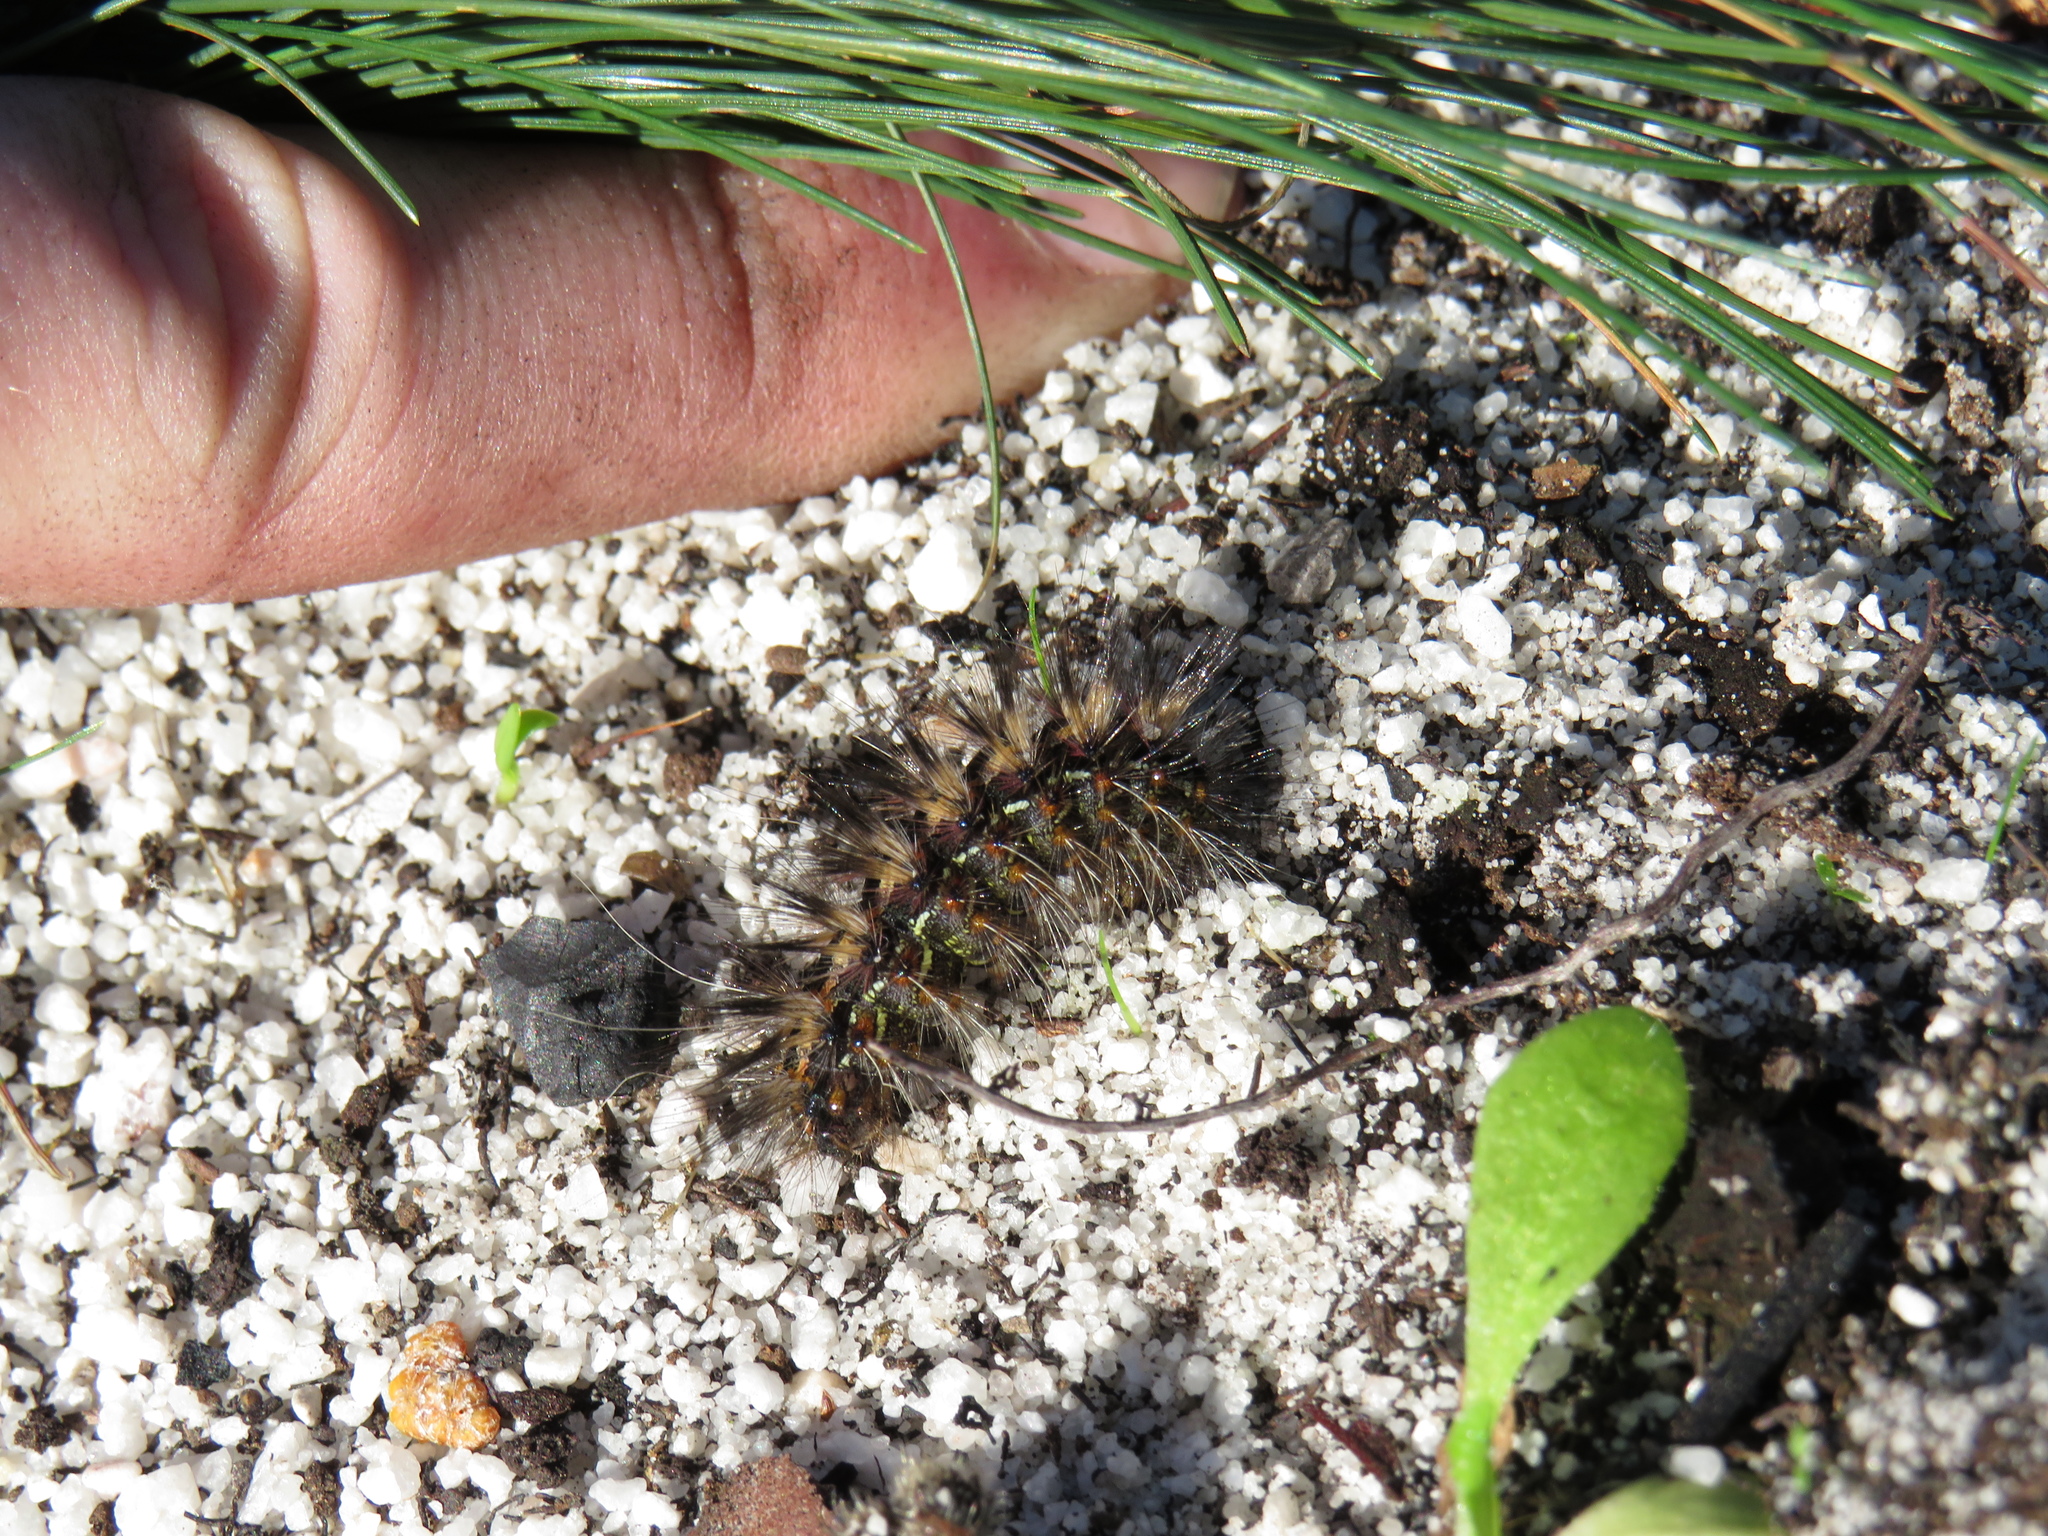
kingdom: Animalia
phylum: Arthropoda
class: Insecta
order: Lepidoptera
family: Erebidae
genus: Paralacydes
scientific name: Paralacydes vocula
